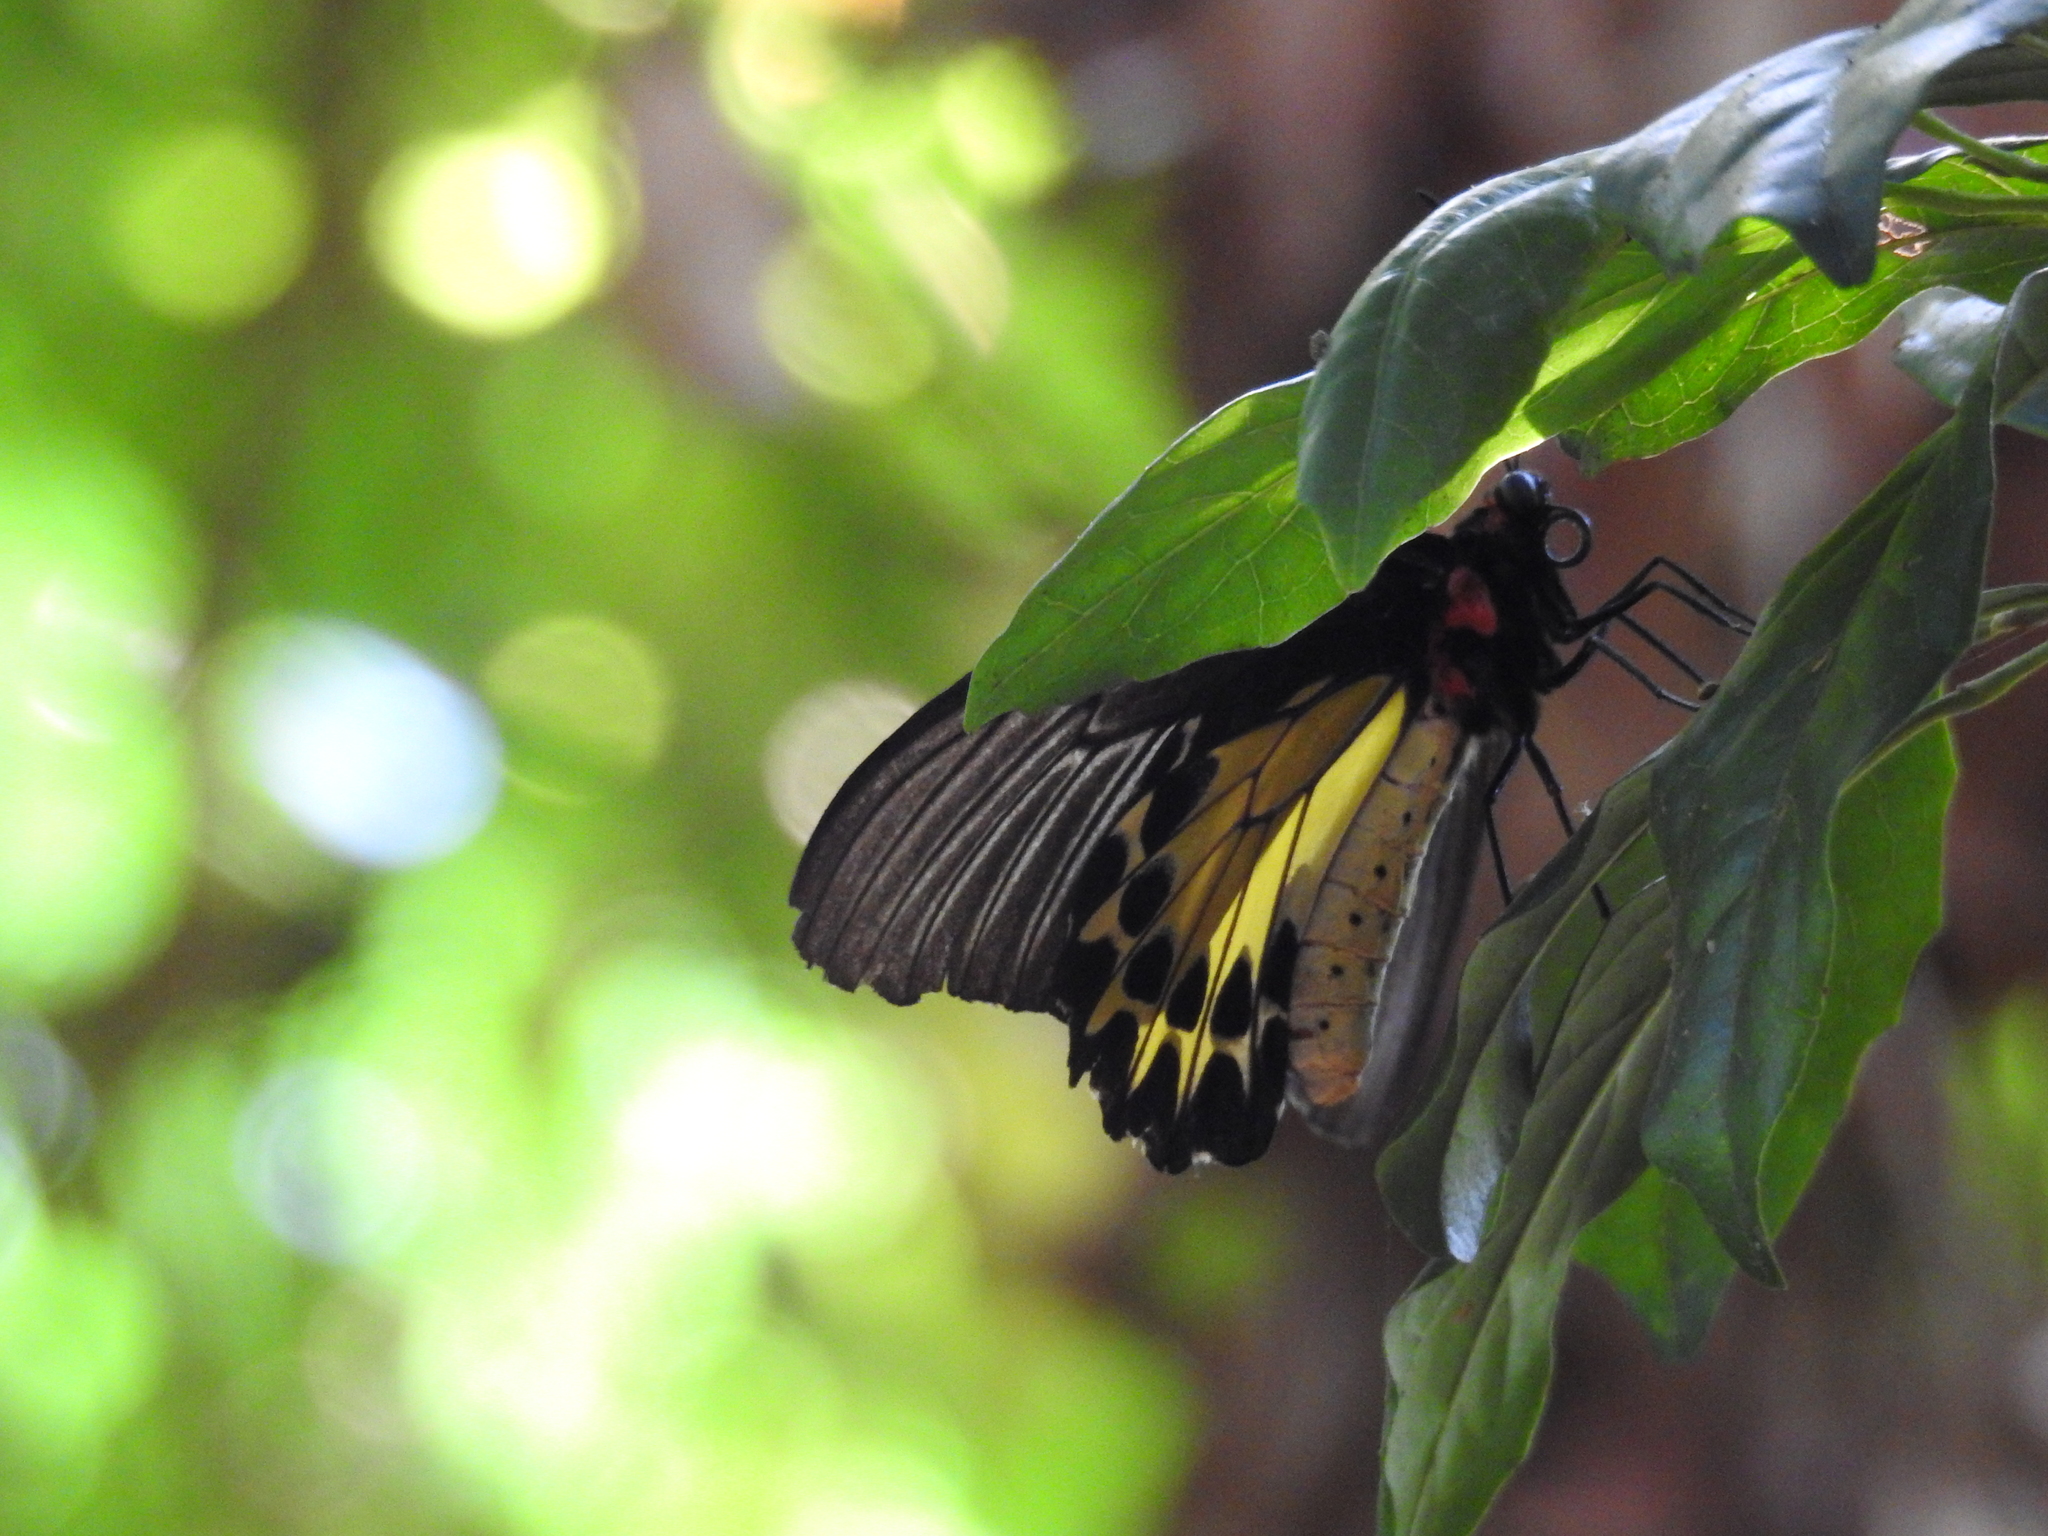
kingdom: Animalia
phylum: Arthropoda
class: Insecta
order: Lepidoptera
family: Papilionidae
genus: Troides
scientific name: Troides helena
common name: Common birdwing
